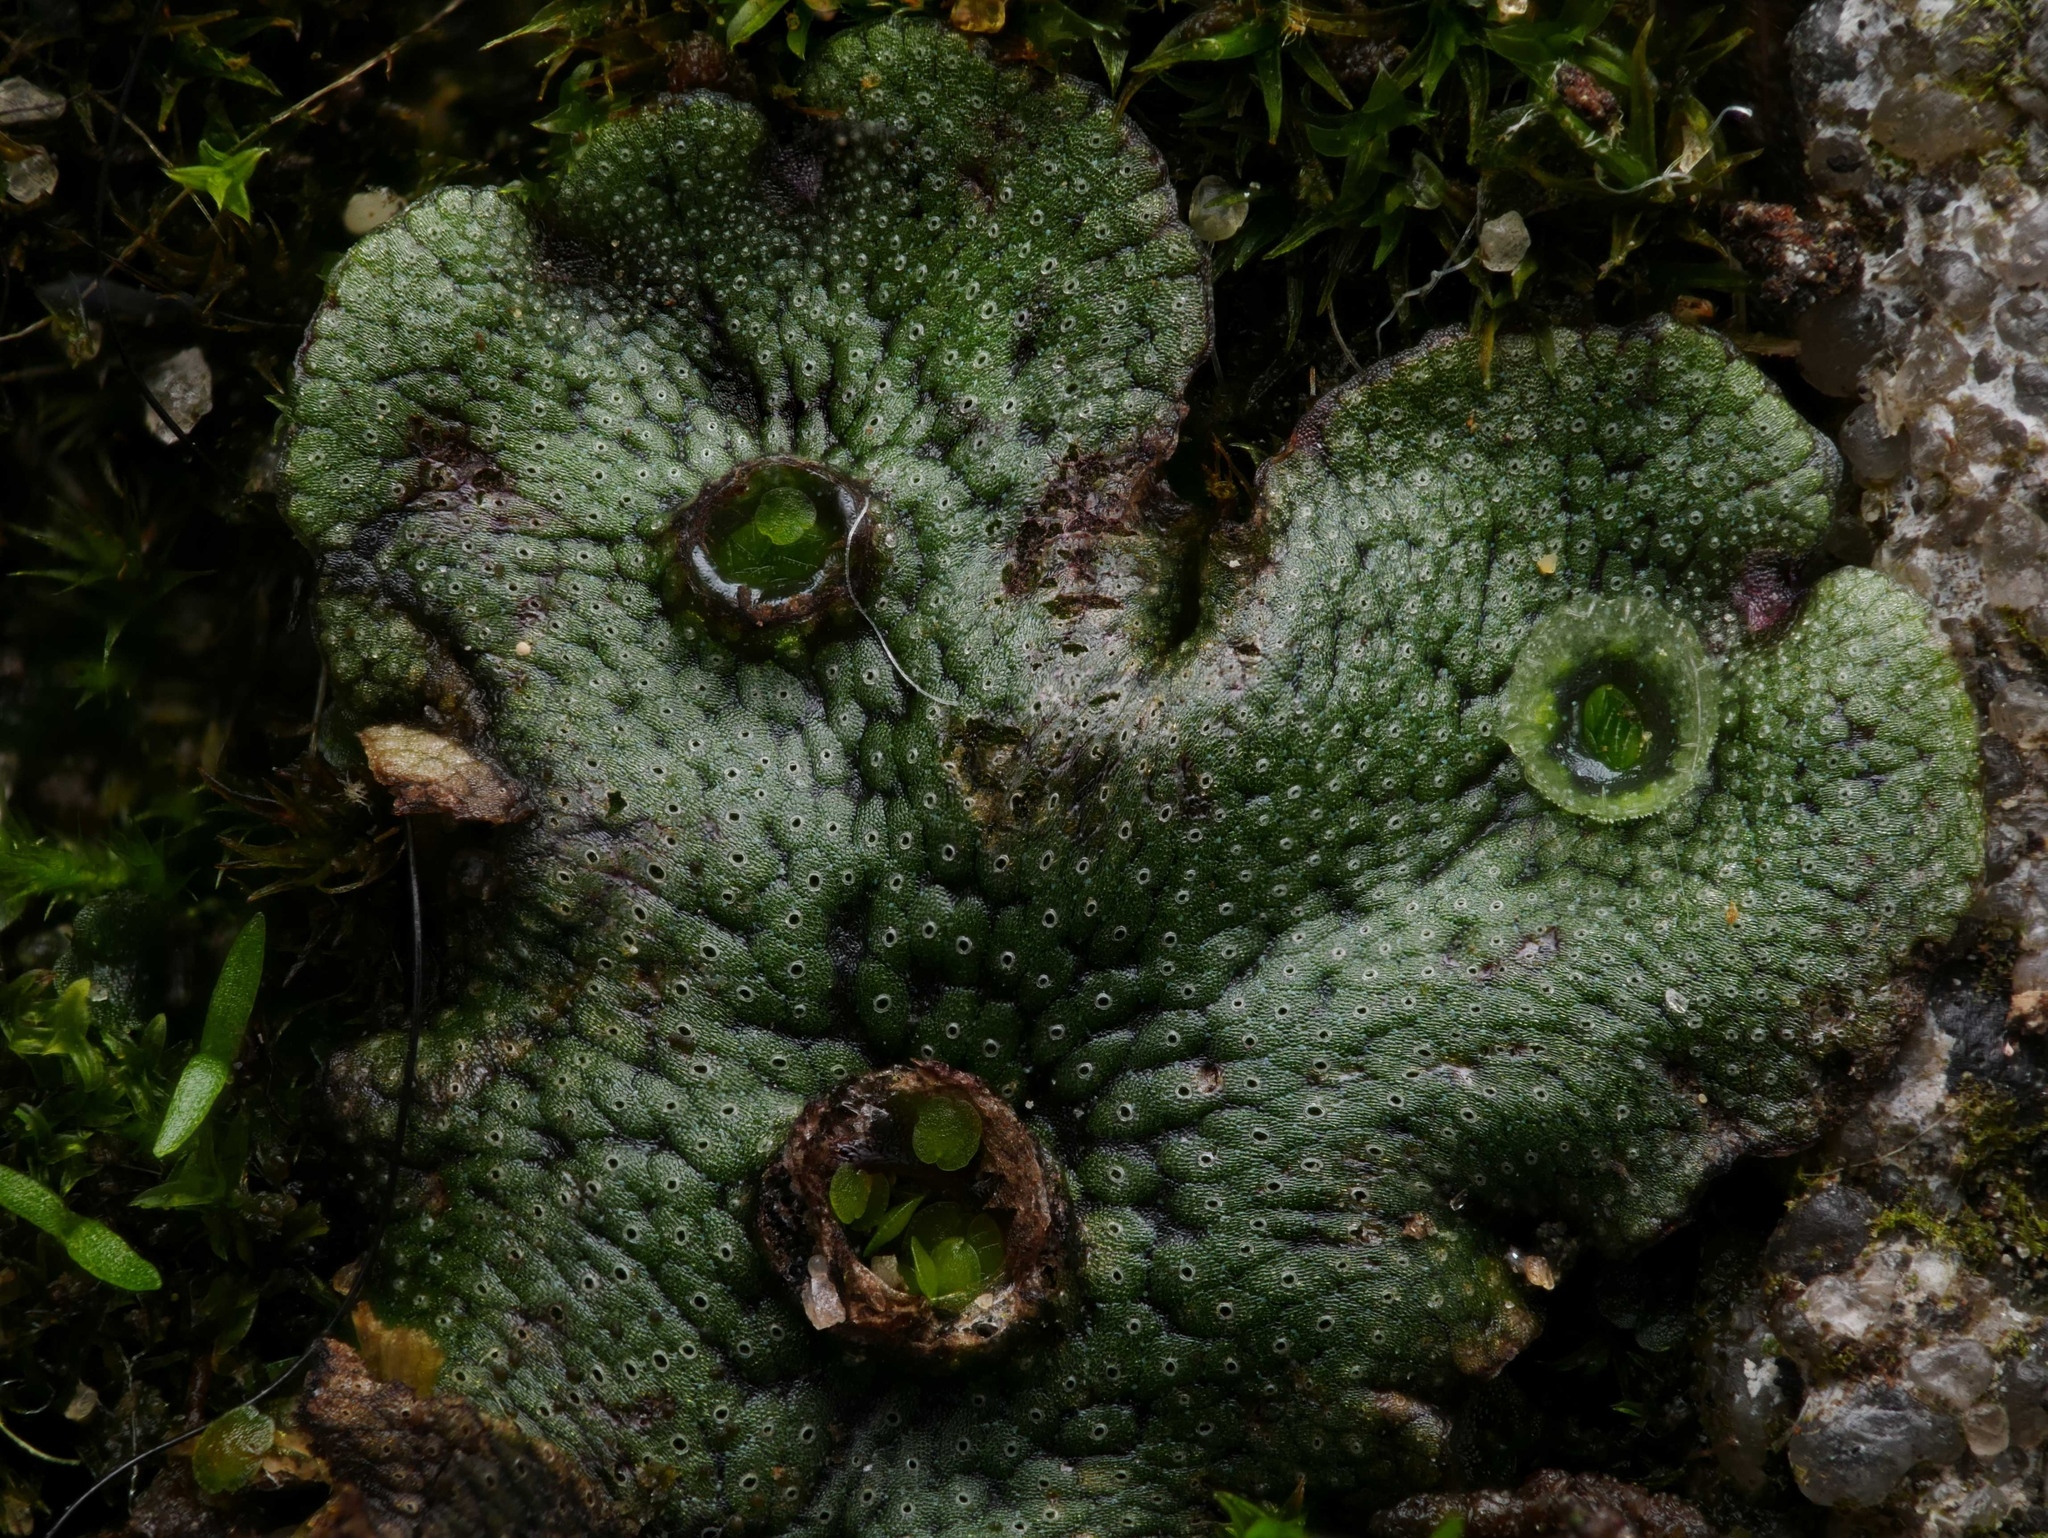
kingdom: Plantae
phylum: Marchantiophyta
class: Marchantiopsida
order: Marchantiales
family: Marchantiaceae
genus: Marchantia
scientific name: Marchantia polymorpha
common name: Common liverwort
